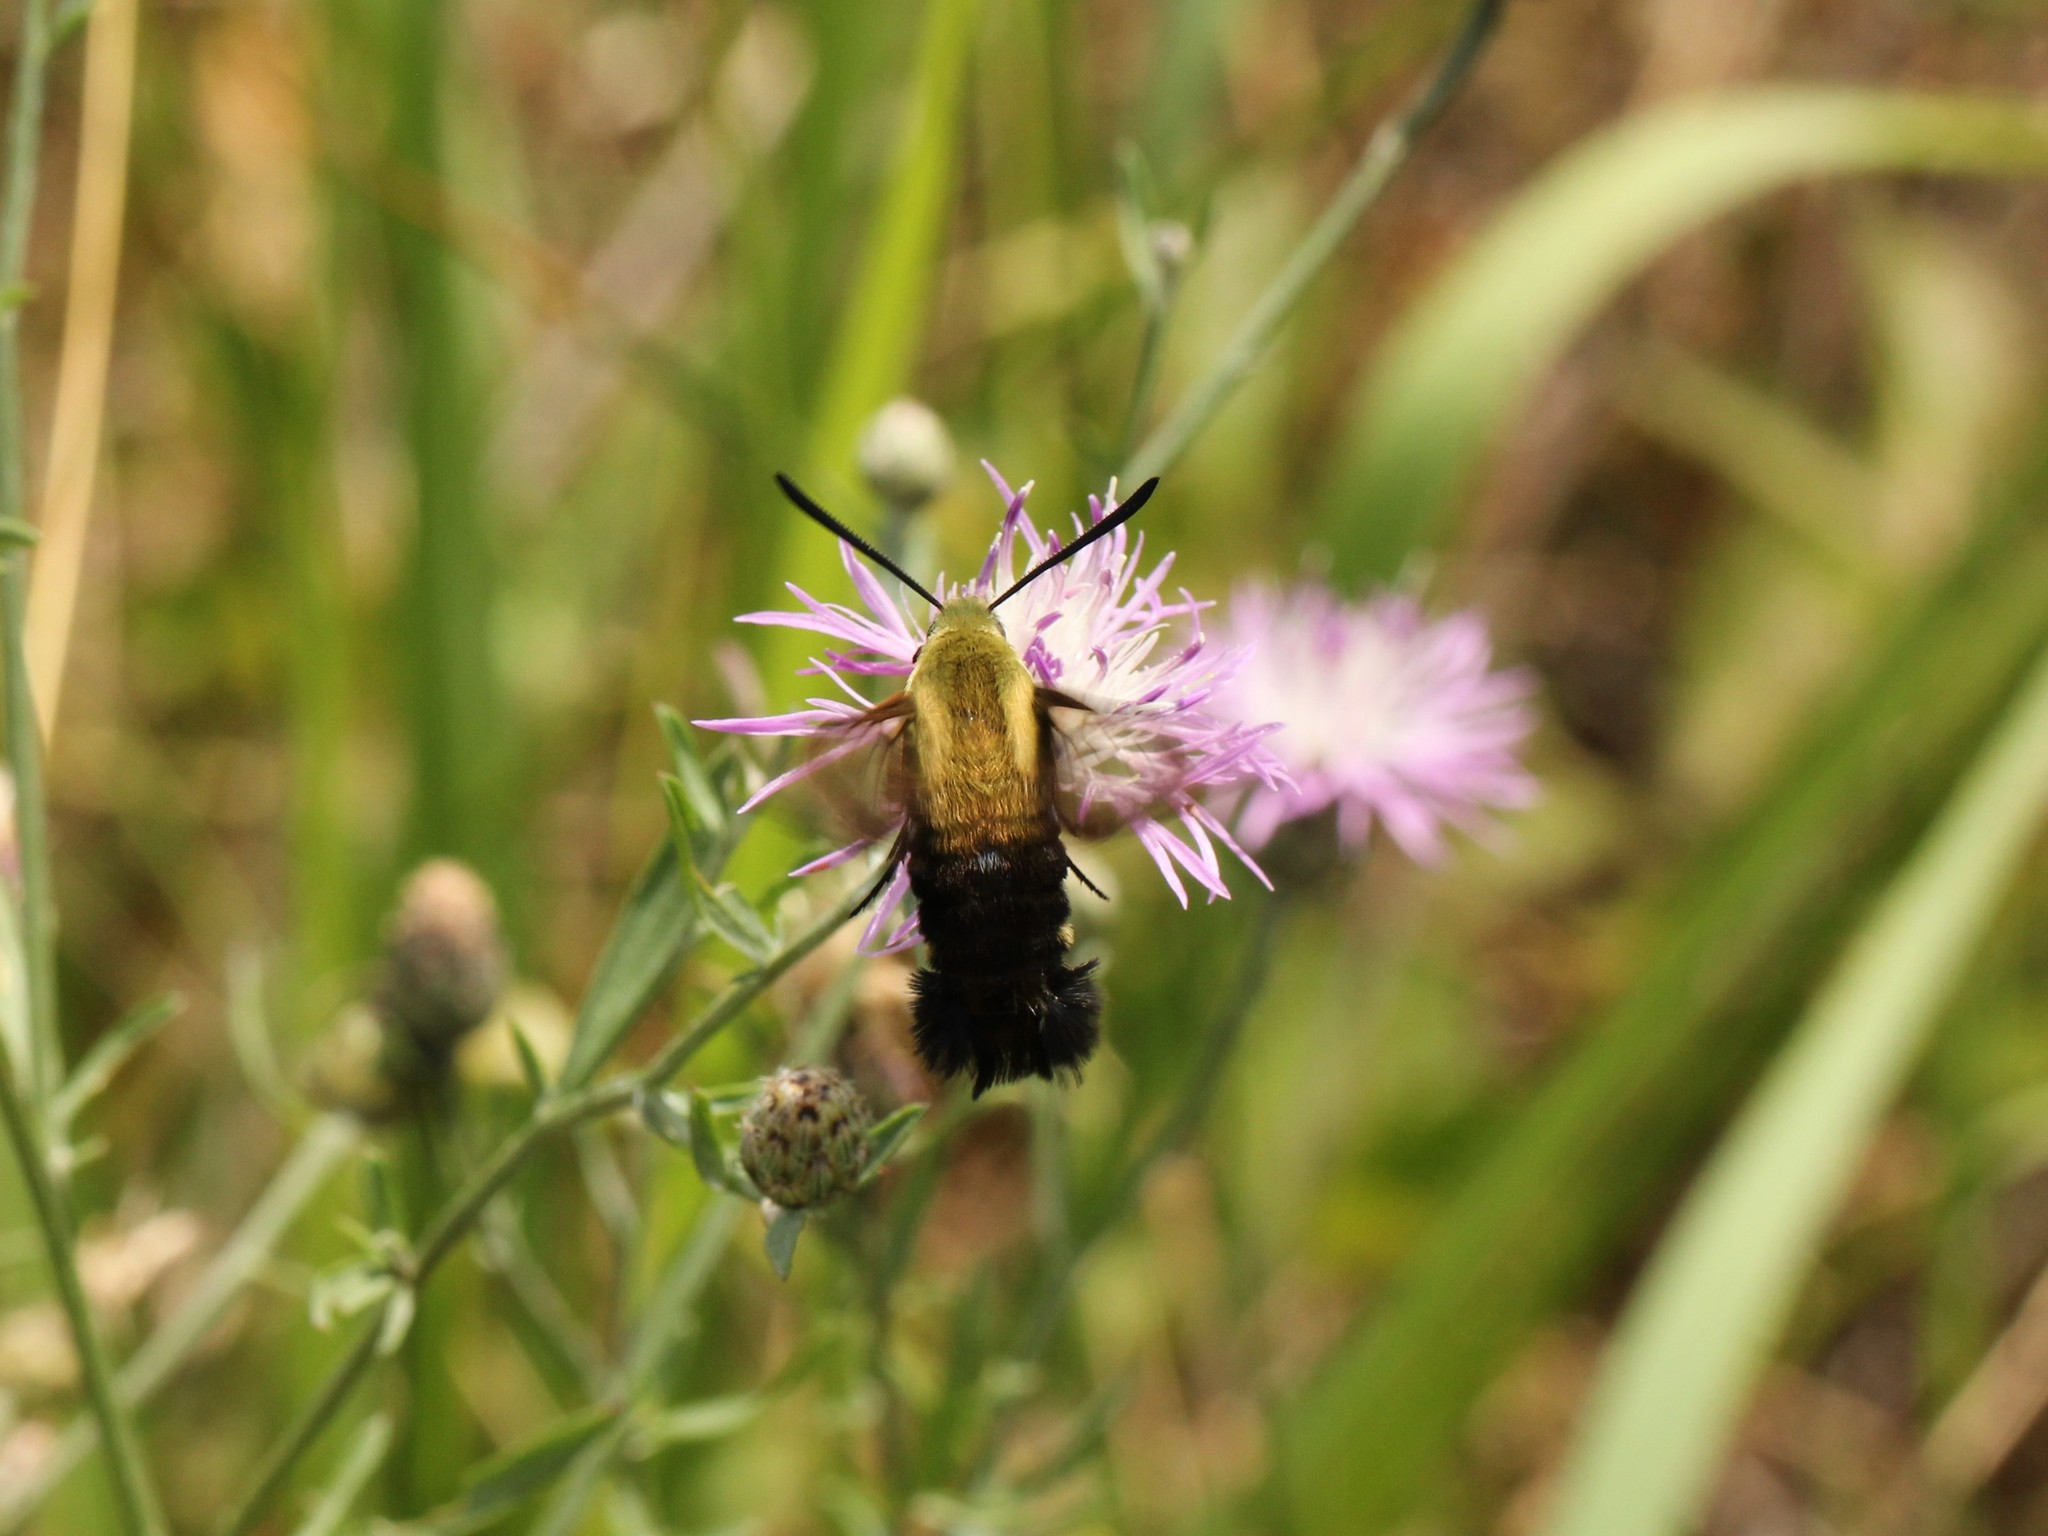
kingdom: Animalia
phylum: Arthropoda
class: Insecta
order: Lepidoptera
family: Sphingidae
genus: Hemaris
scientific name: Hemaris diffinis
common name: Bumblebee moth
